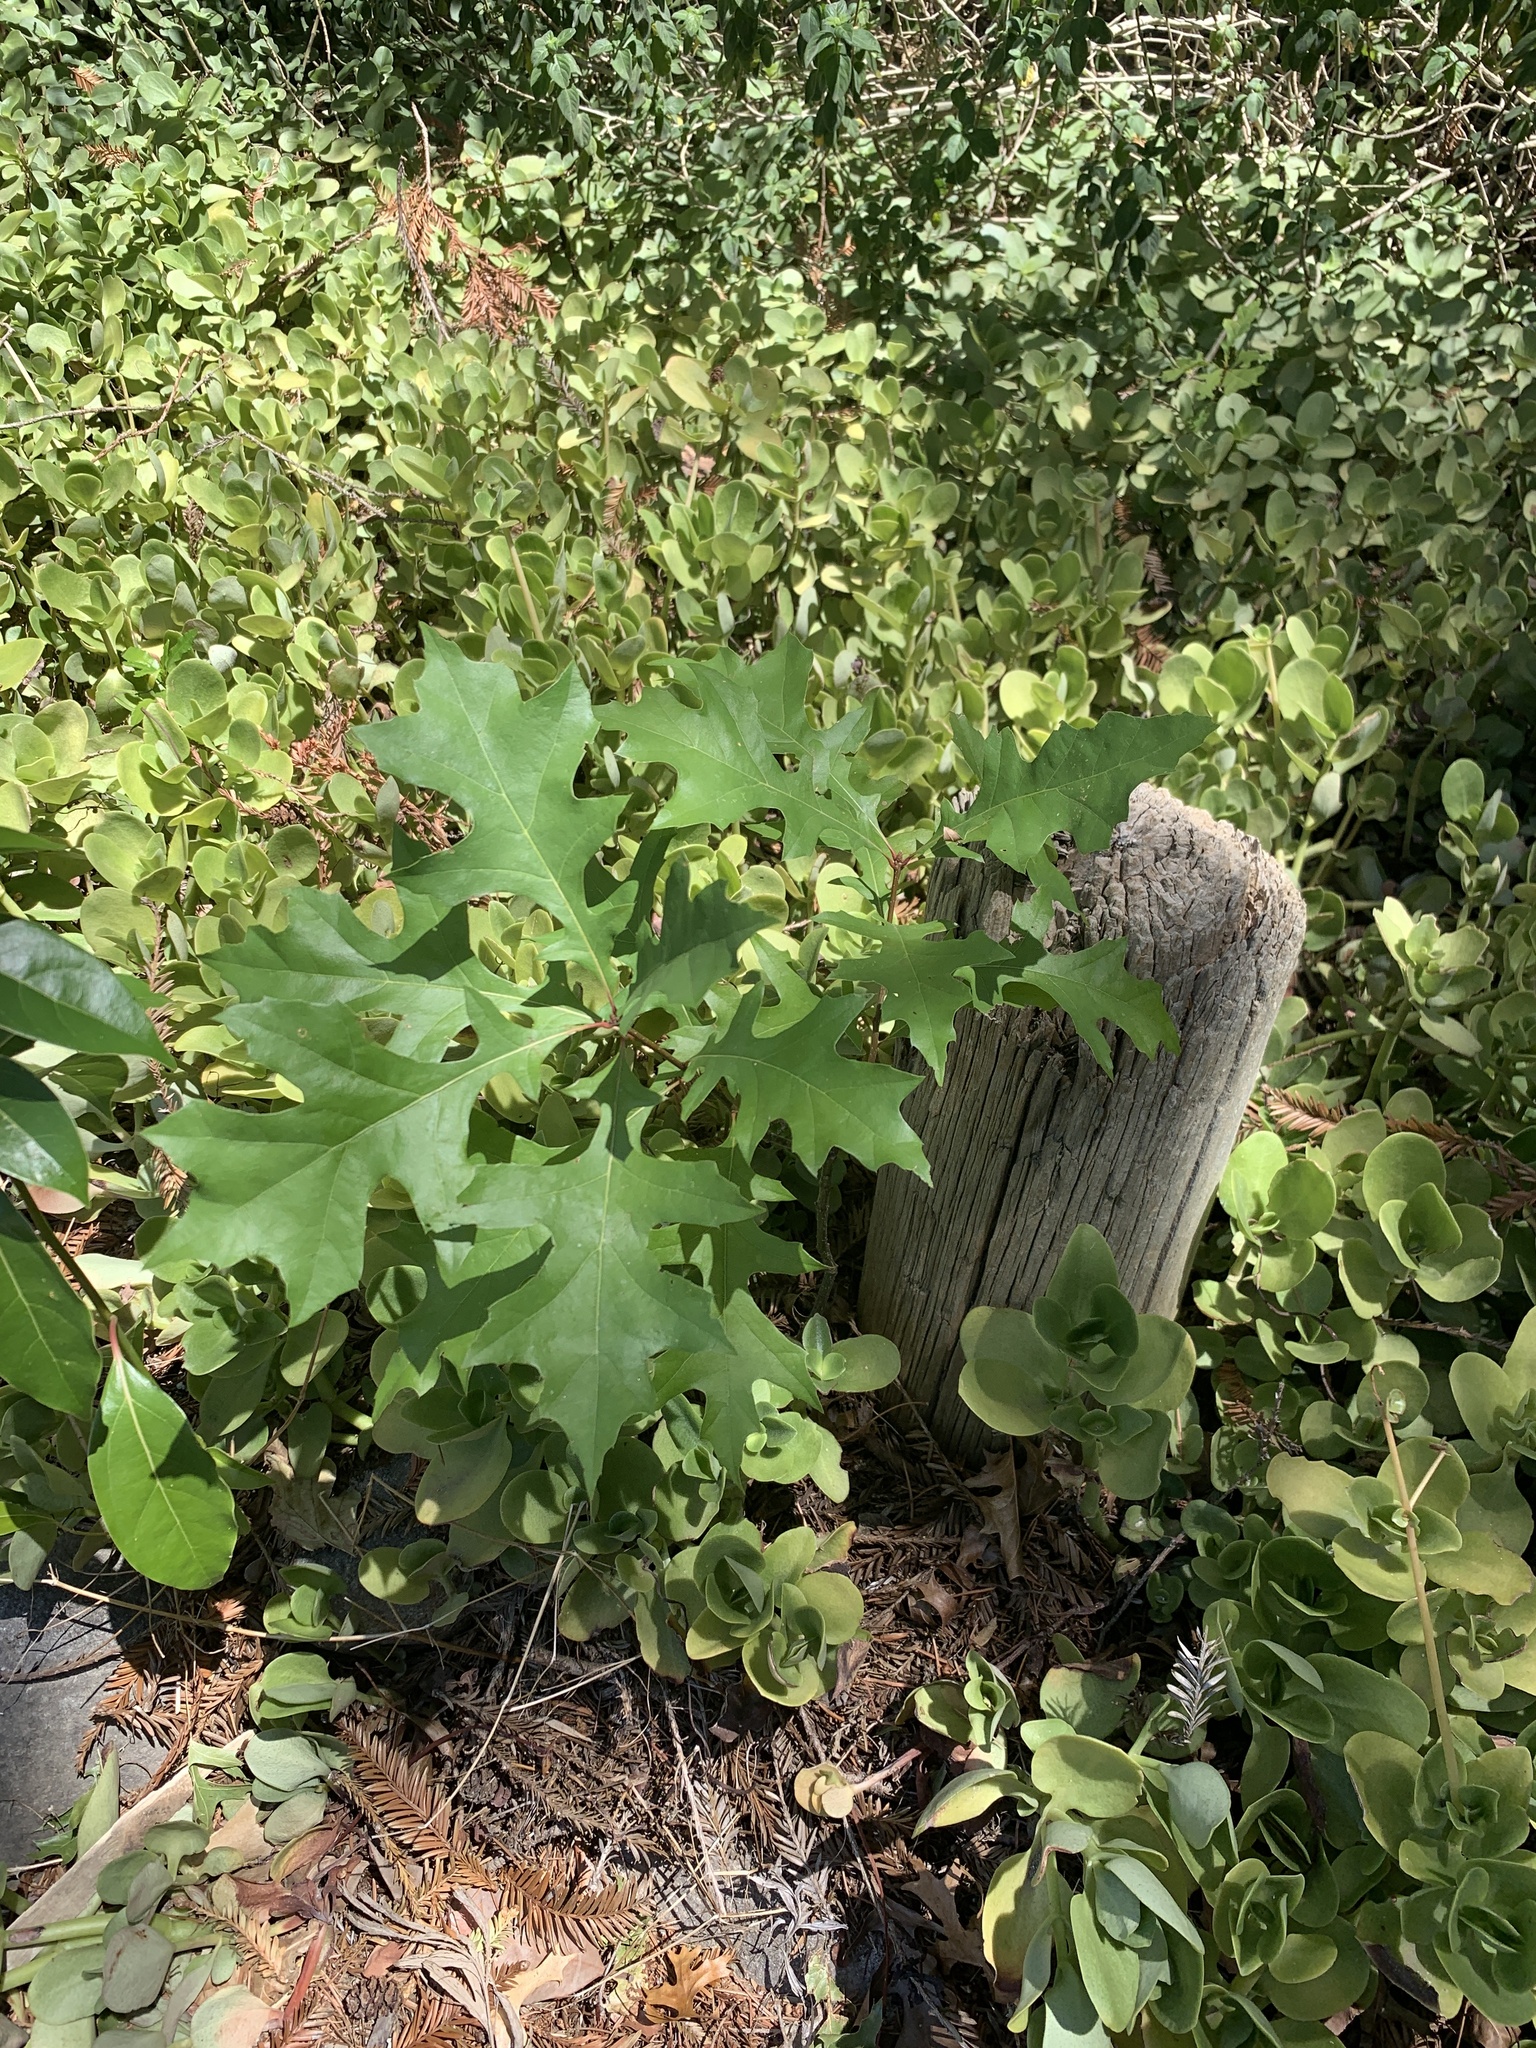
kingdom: Plantae
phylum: Tracheophyta
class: Magnoliopsida
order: Fagales
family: Fagaceae
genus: Quercus
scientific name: Quercus palustris
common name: Pin oak
